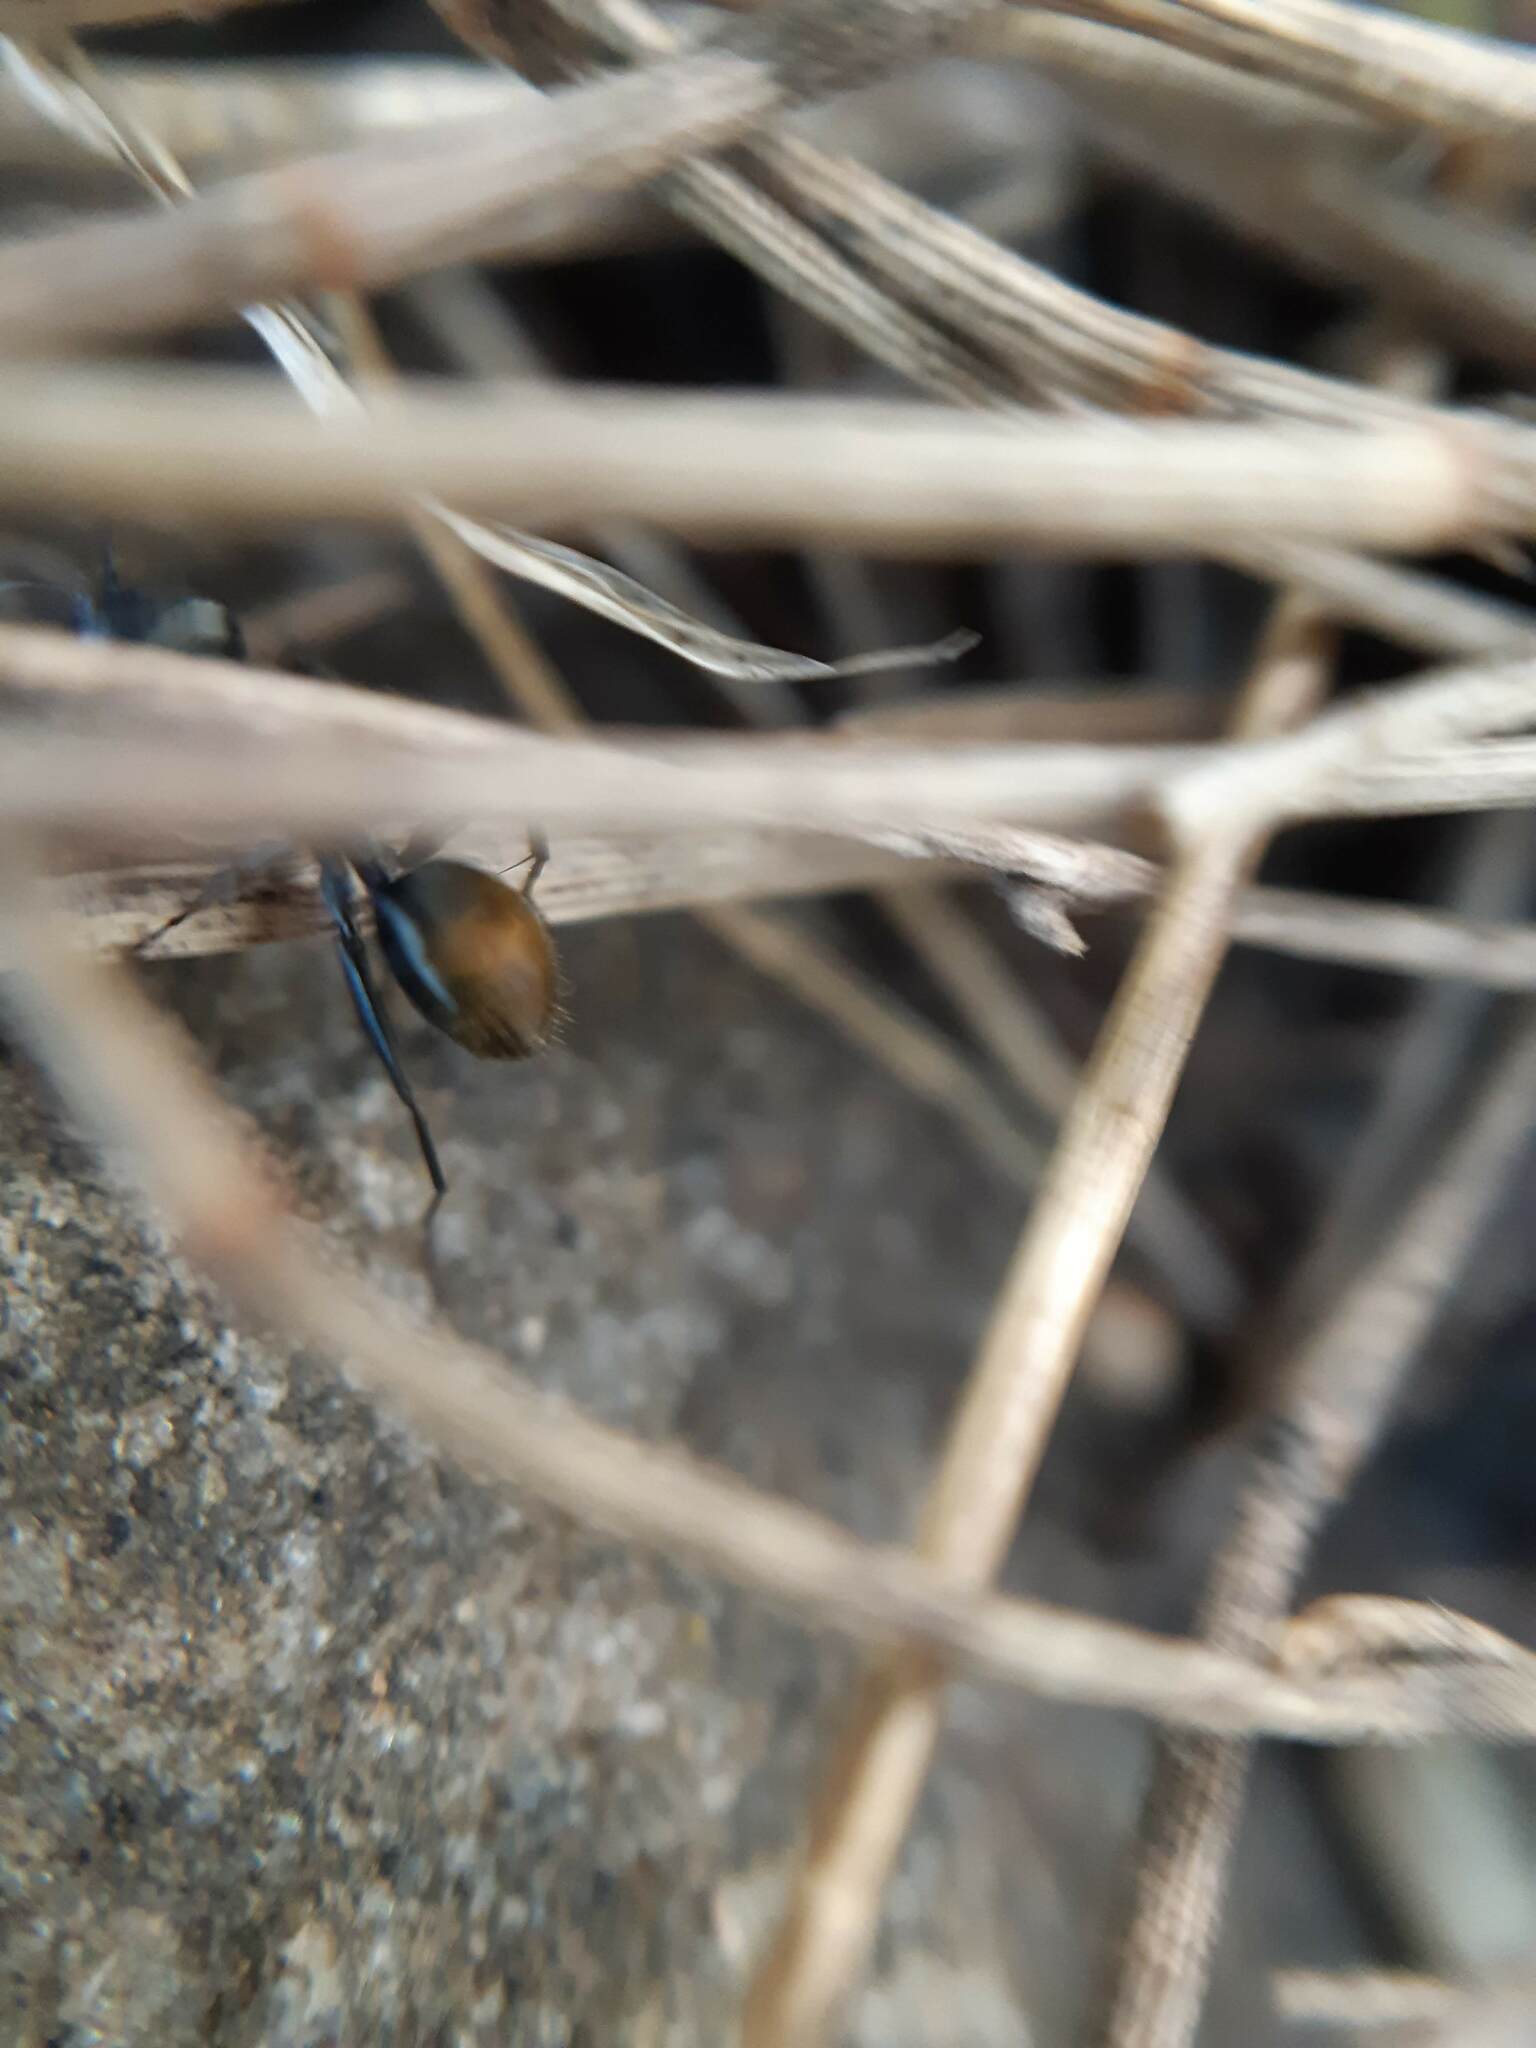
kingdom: Animalia
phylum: Arthropoda
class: Insecta
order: Hymenoptera
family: Formicidae
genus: Camponotus
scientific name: Camponotus aeneopilosus
